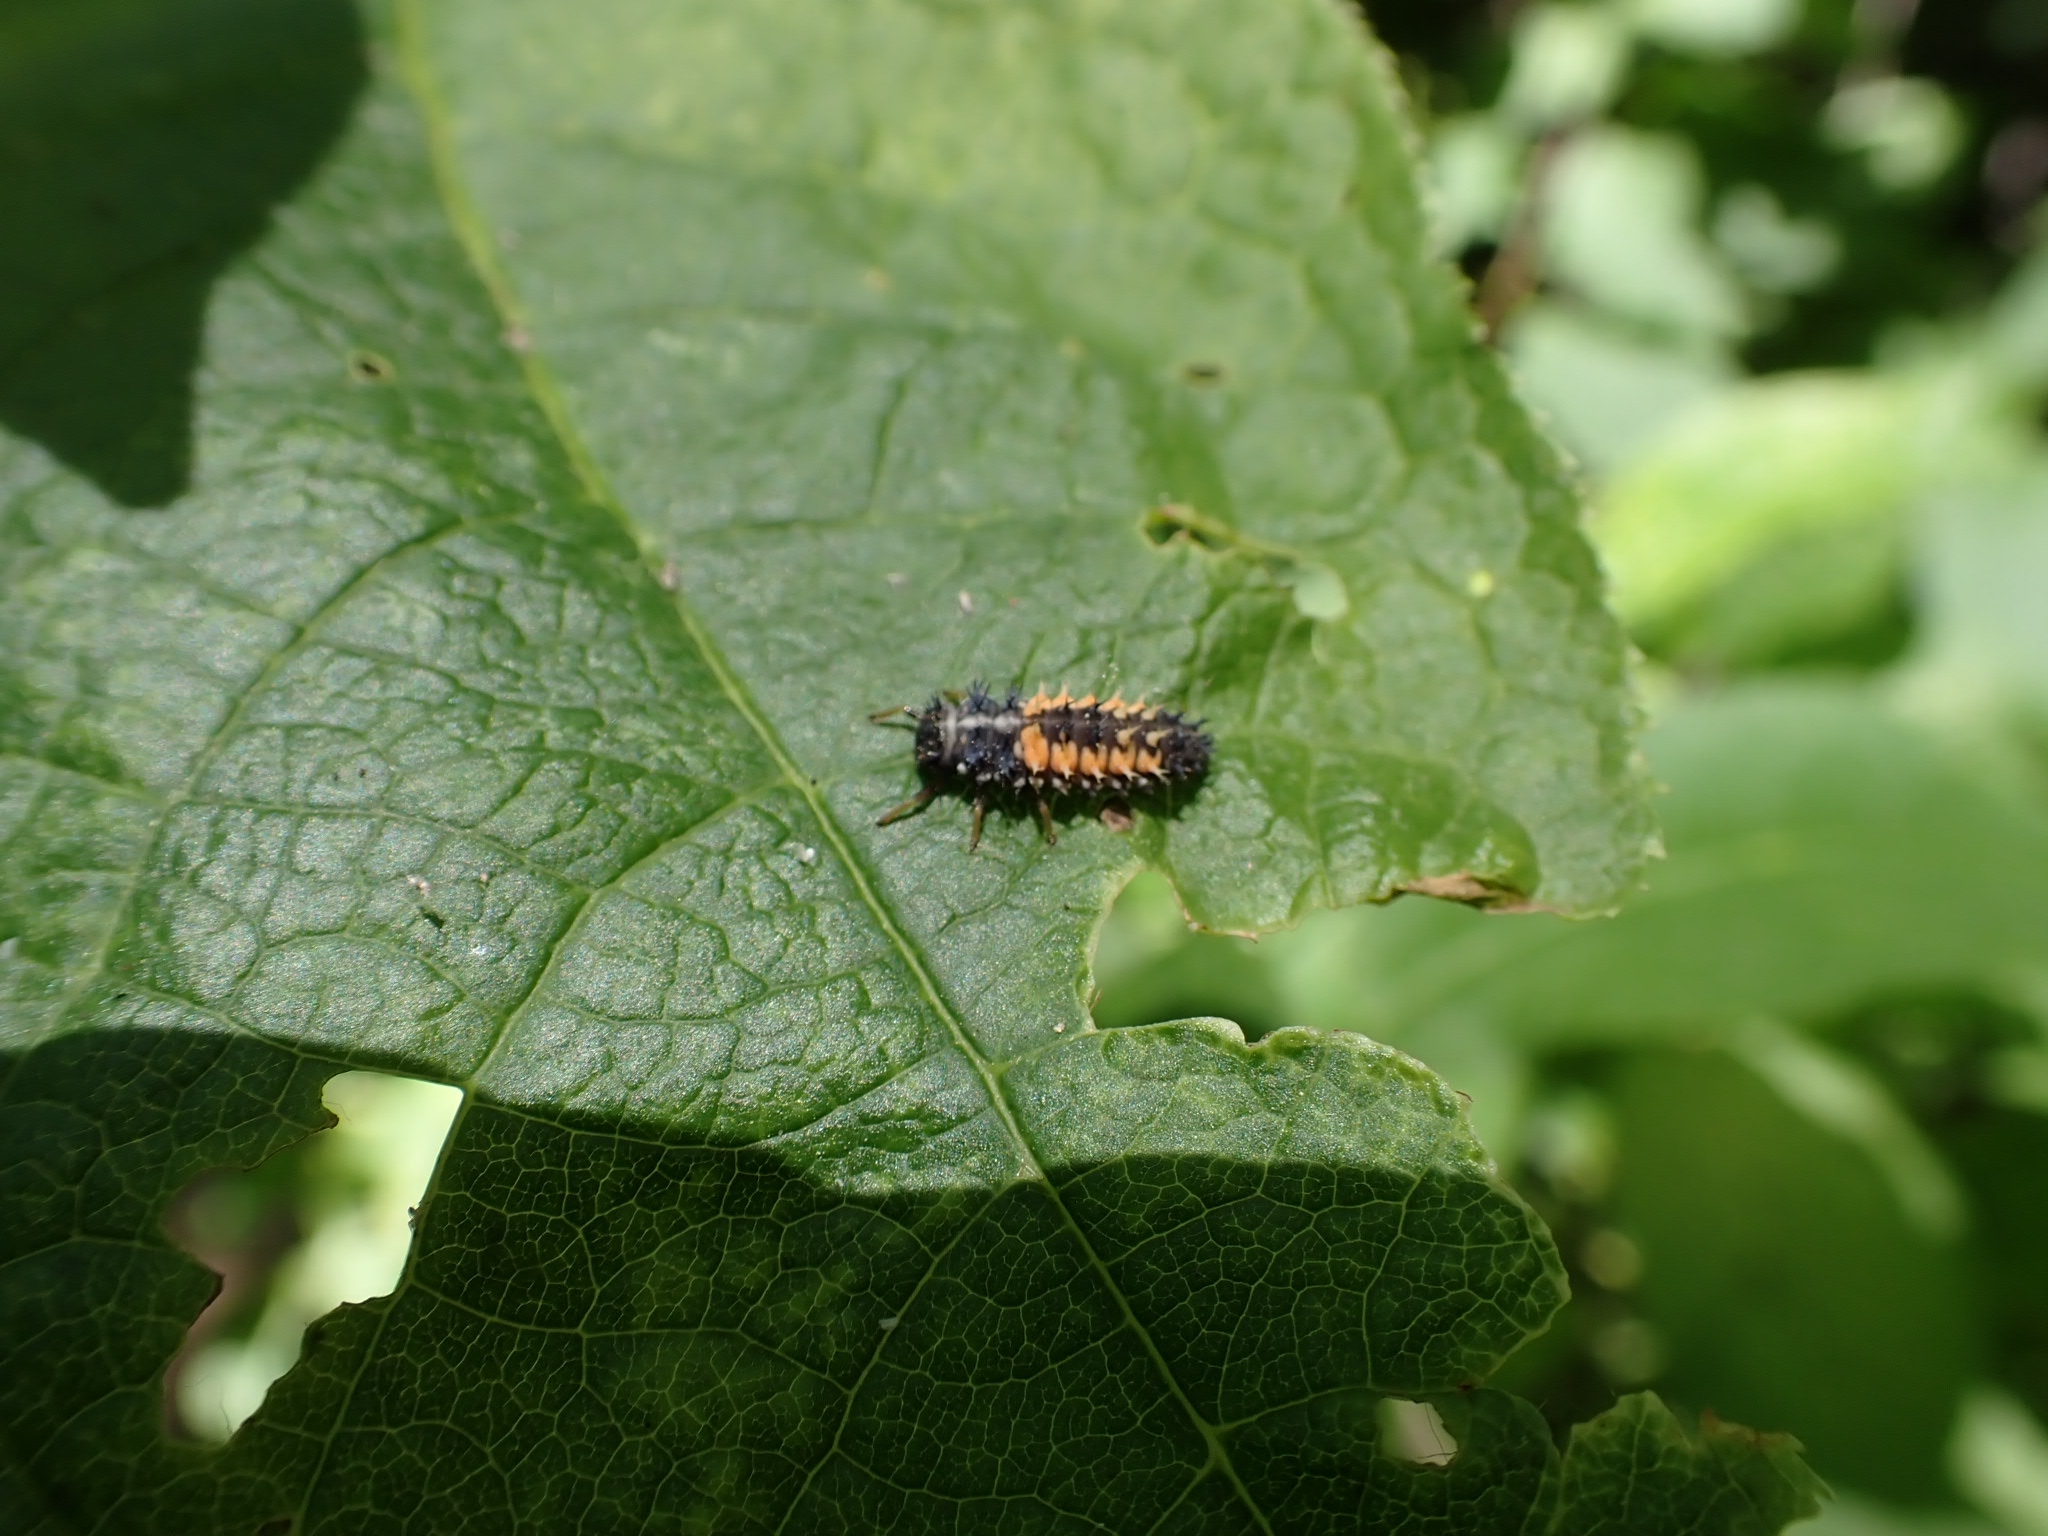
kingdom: Animalia
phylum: Arthropoda
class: Insecta
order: Coleoptera
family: Coccinellidae
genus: Harmonia
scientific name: Harmonia axyridis
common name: Harlequin ladybird
